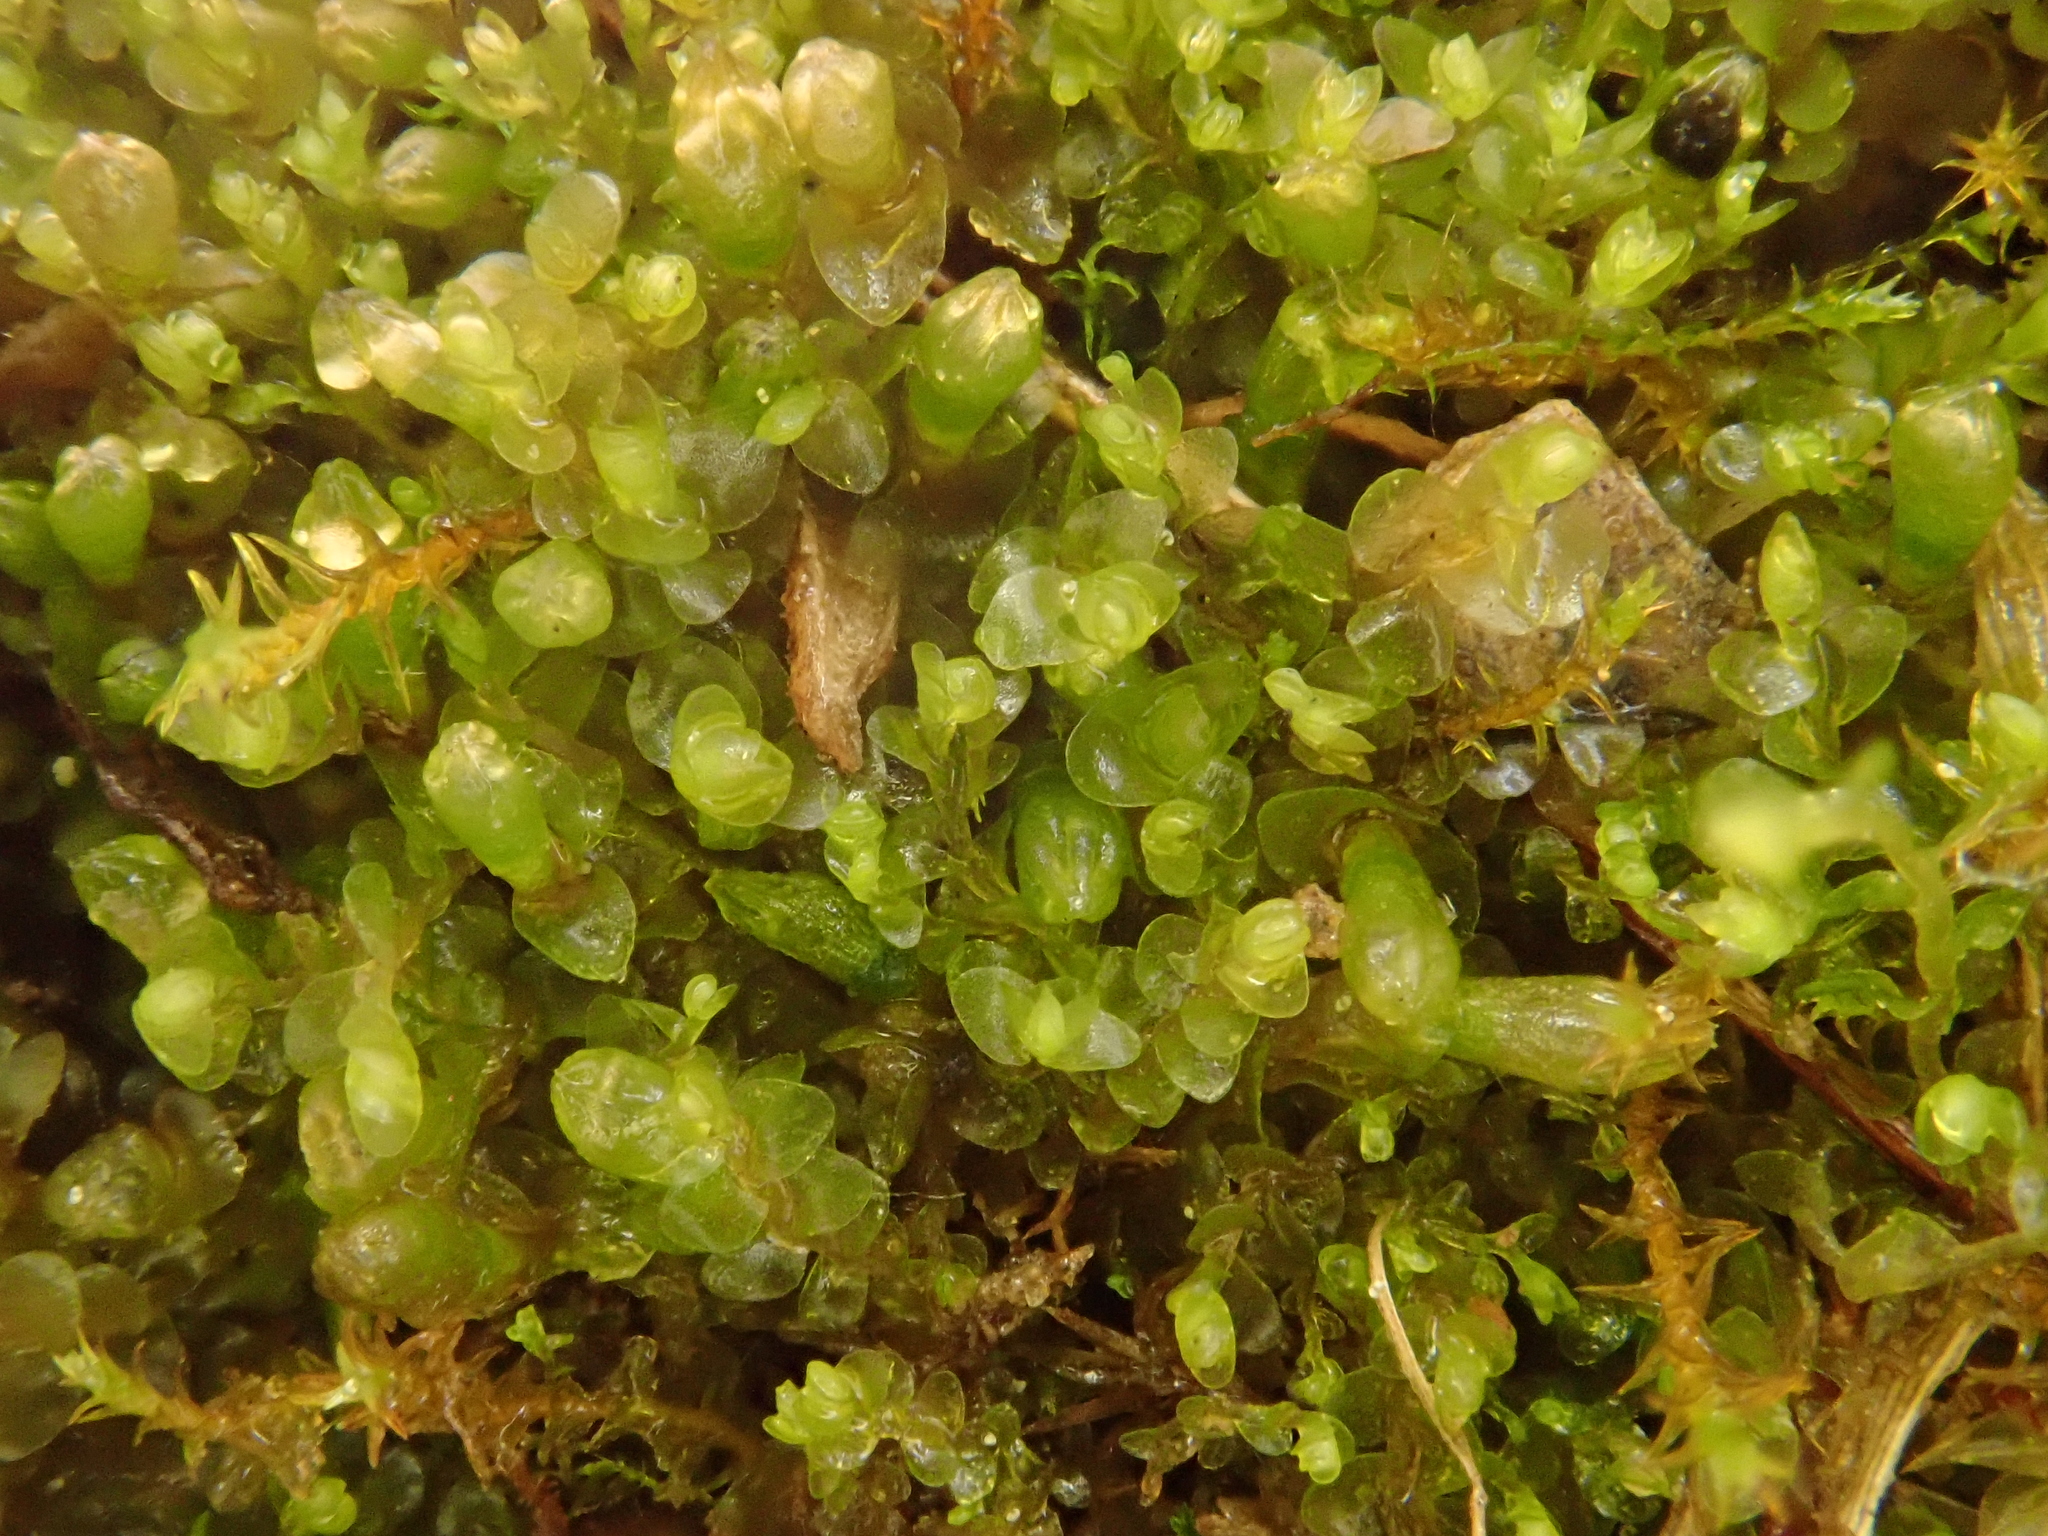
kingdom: Plantae
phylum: Marchantiophyta
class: Jungermanniopsida
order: Jungermanniales
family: Jungermanniaceae
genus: Jungermannia
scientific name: Jungermannia atrovirens
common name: Dark-green flapwort
